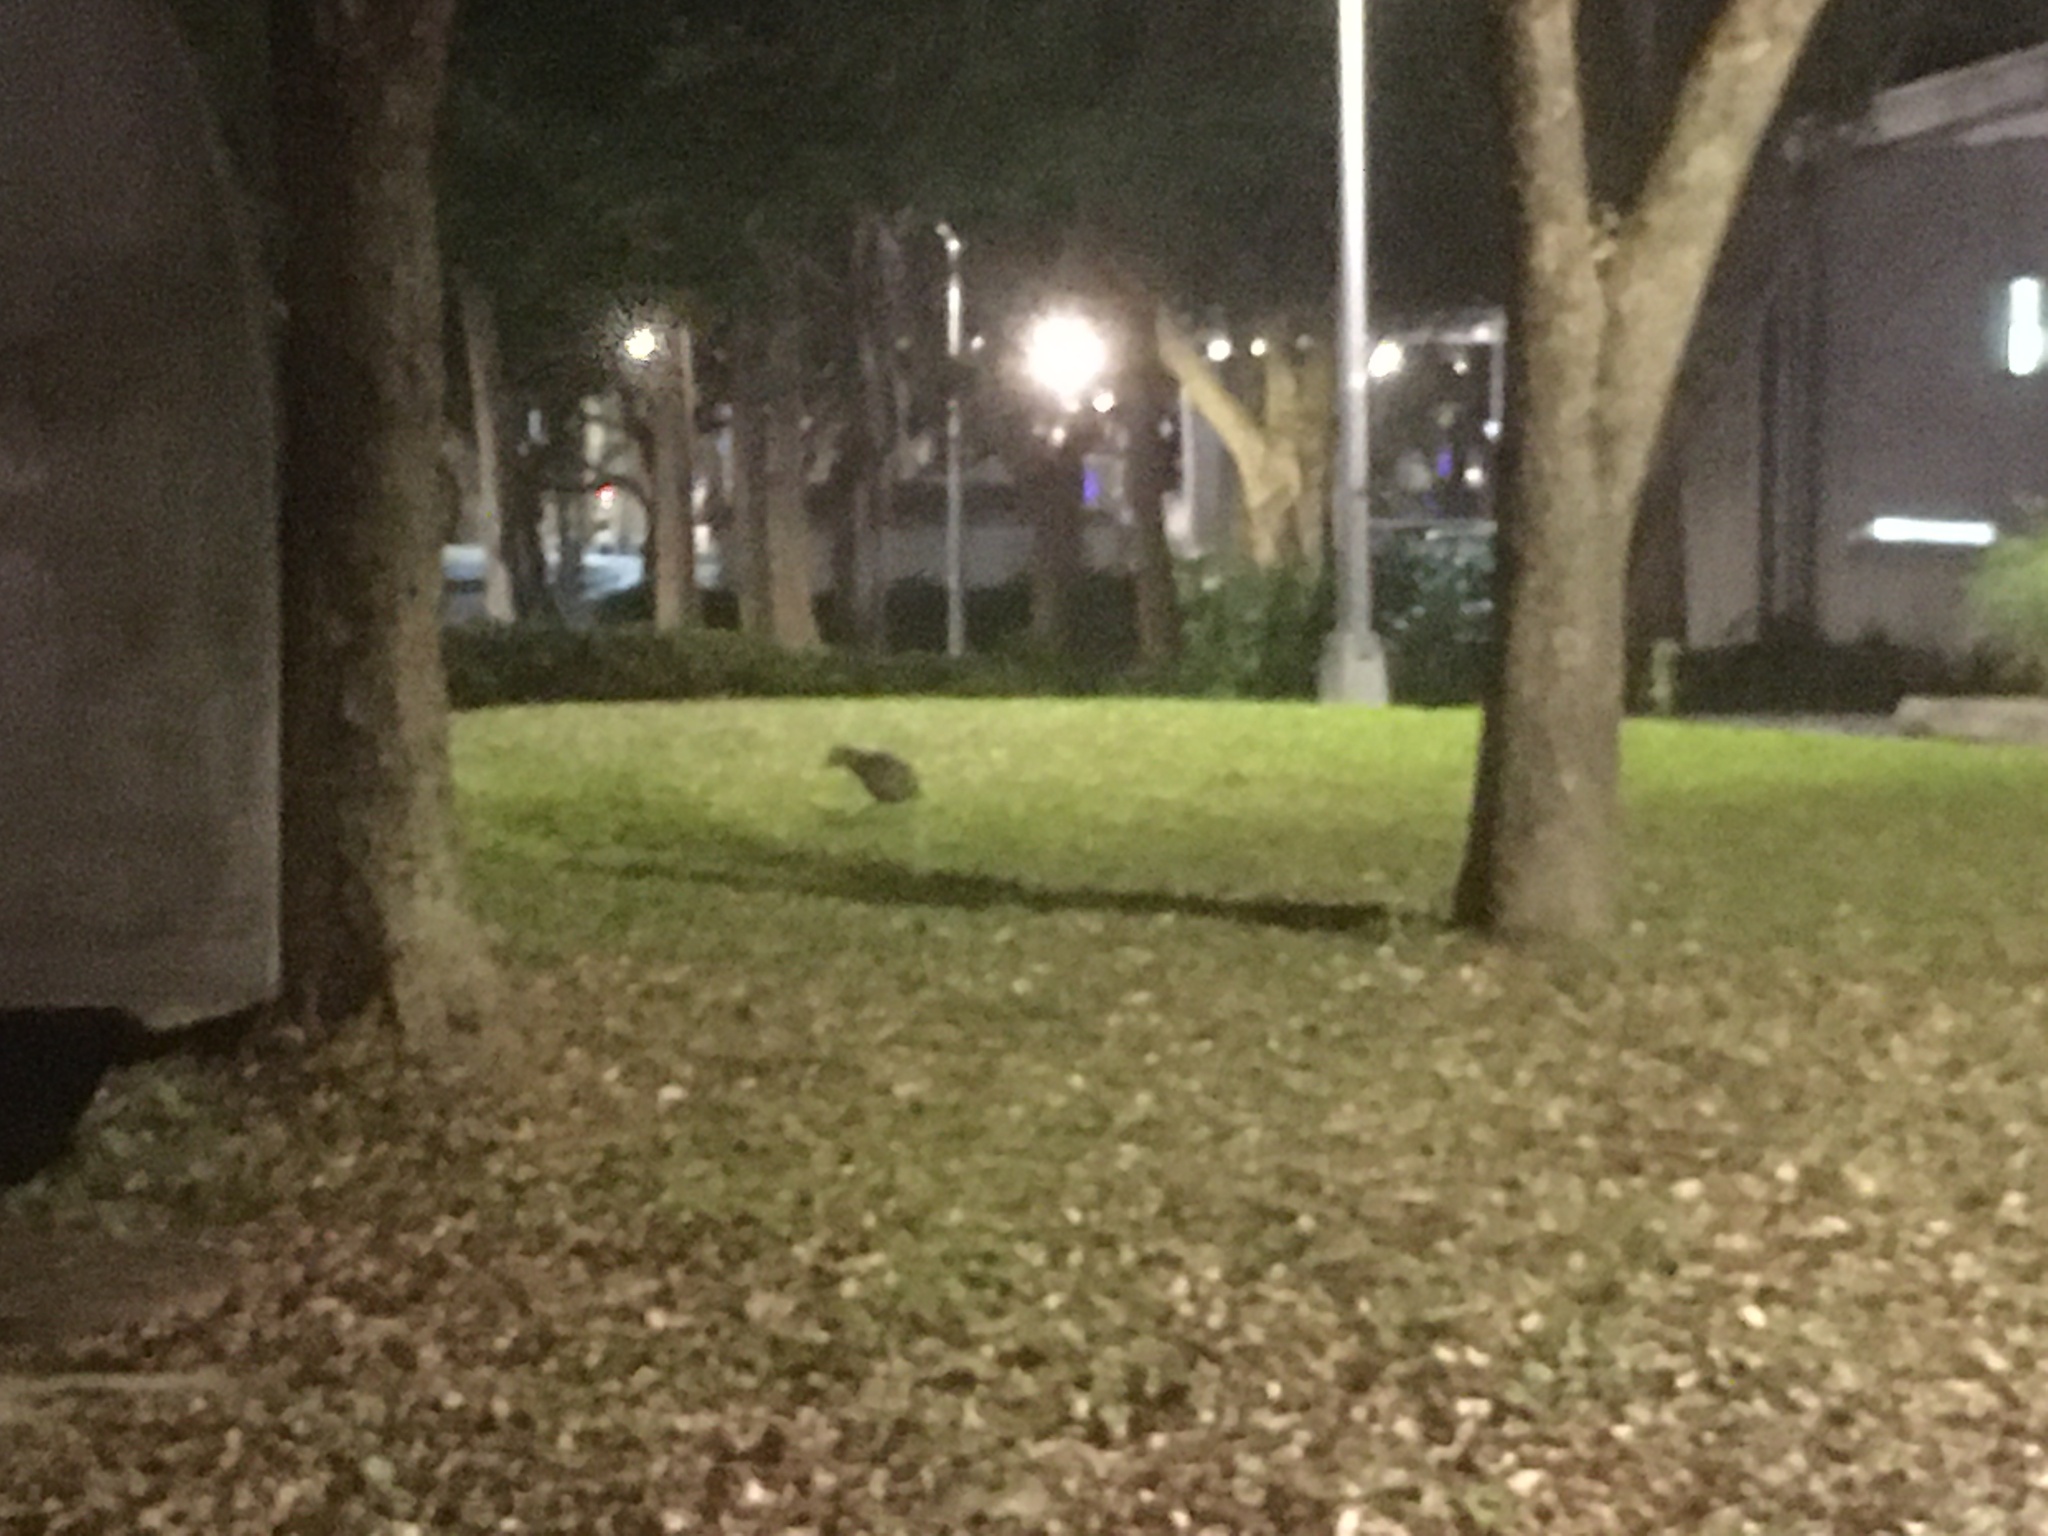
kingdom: Animalia
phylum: Chordata
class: Aves
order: Pelecaniformes
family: Ardeidae
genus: Gorsachius
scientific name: Gorsachius melanolophus
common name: Malayan night heron
